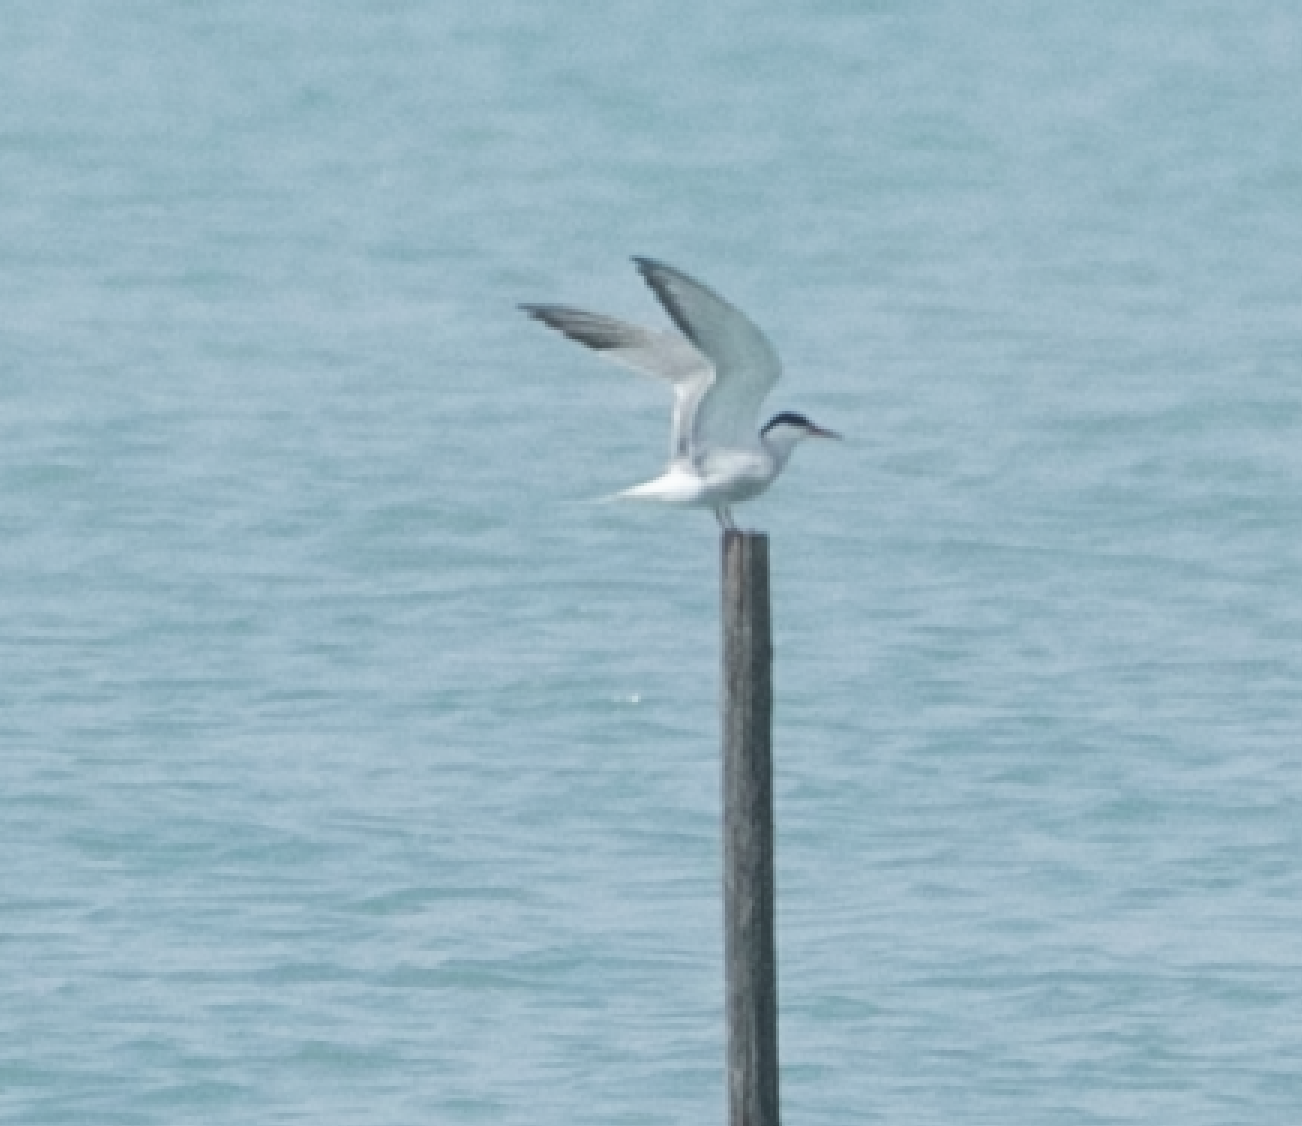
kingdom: Animalia
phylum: Chordata
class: Aves
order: Charadriiformes
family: Laridae
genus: Sterna
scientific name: Sterna hirundo
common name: Common tern
